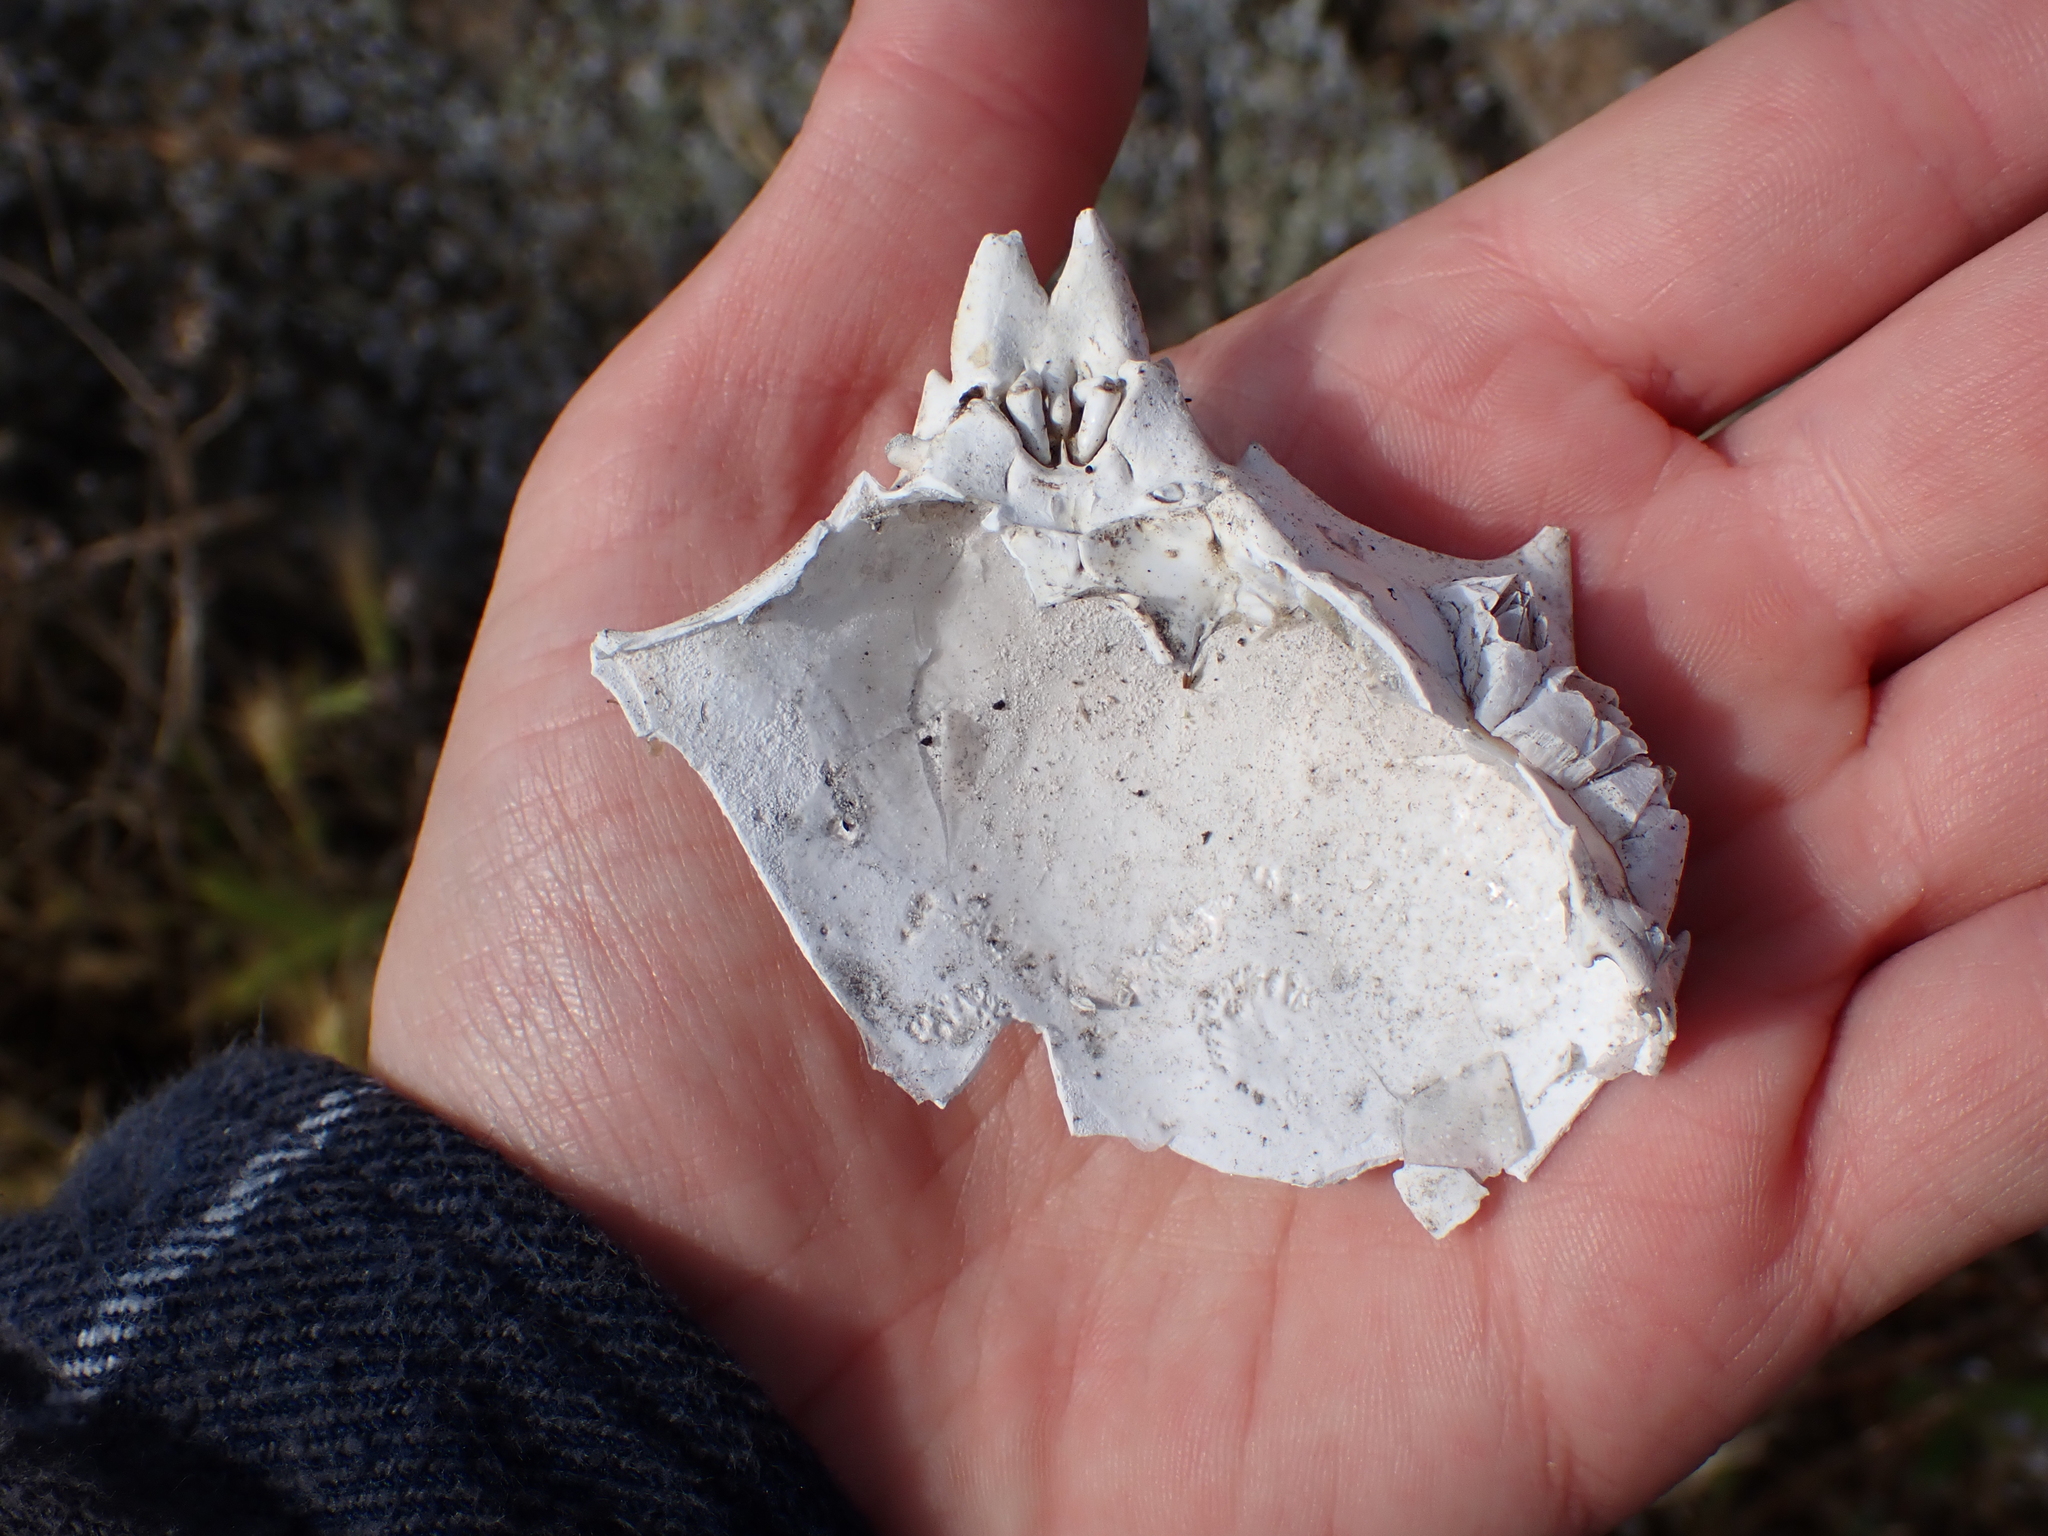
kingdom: Animalia
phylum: Arthropoda
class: Malacostraca
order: Decapoda
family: Epialtidae
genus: Pugettia
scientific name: Pugettia producta
